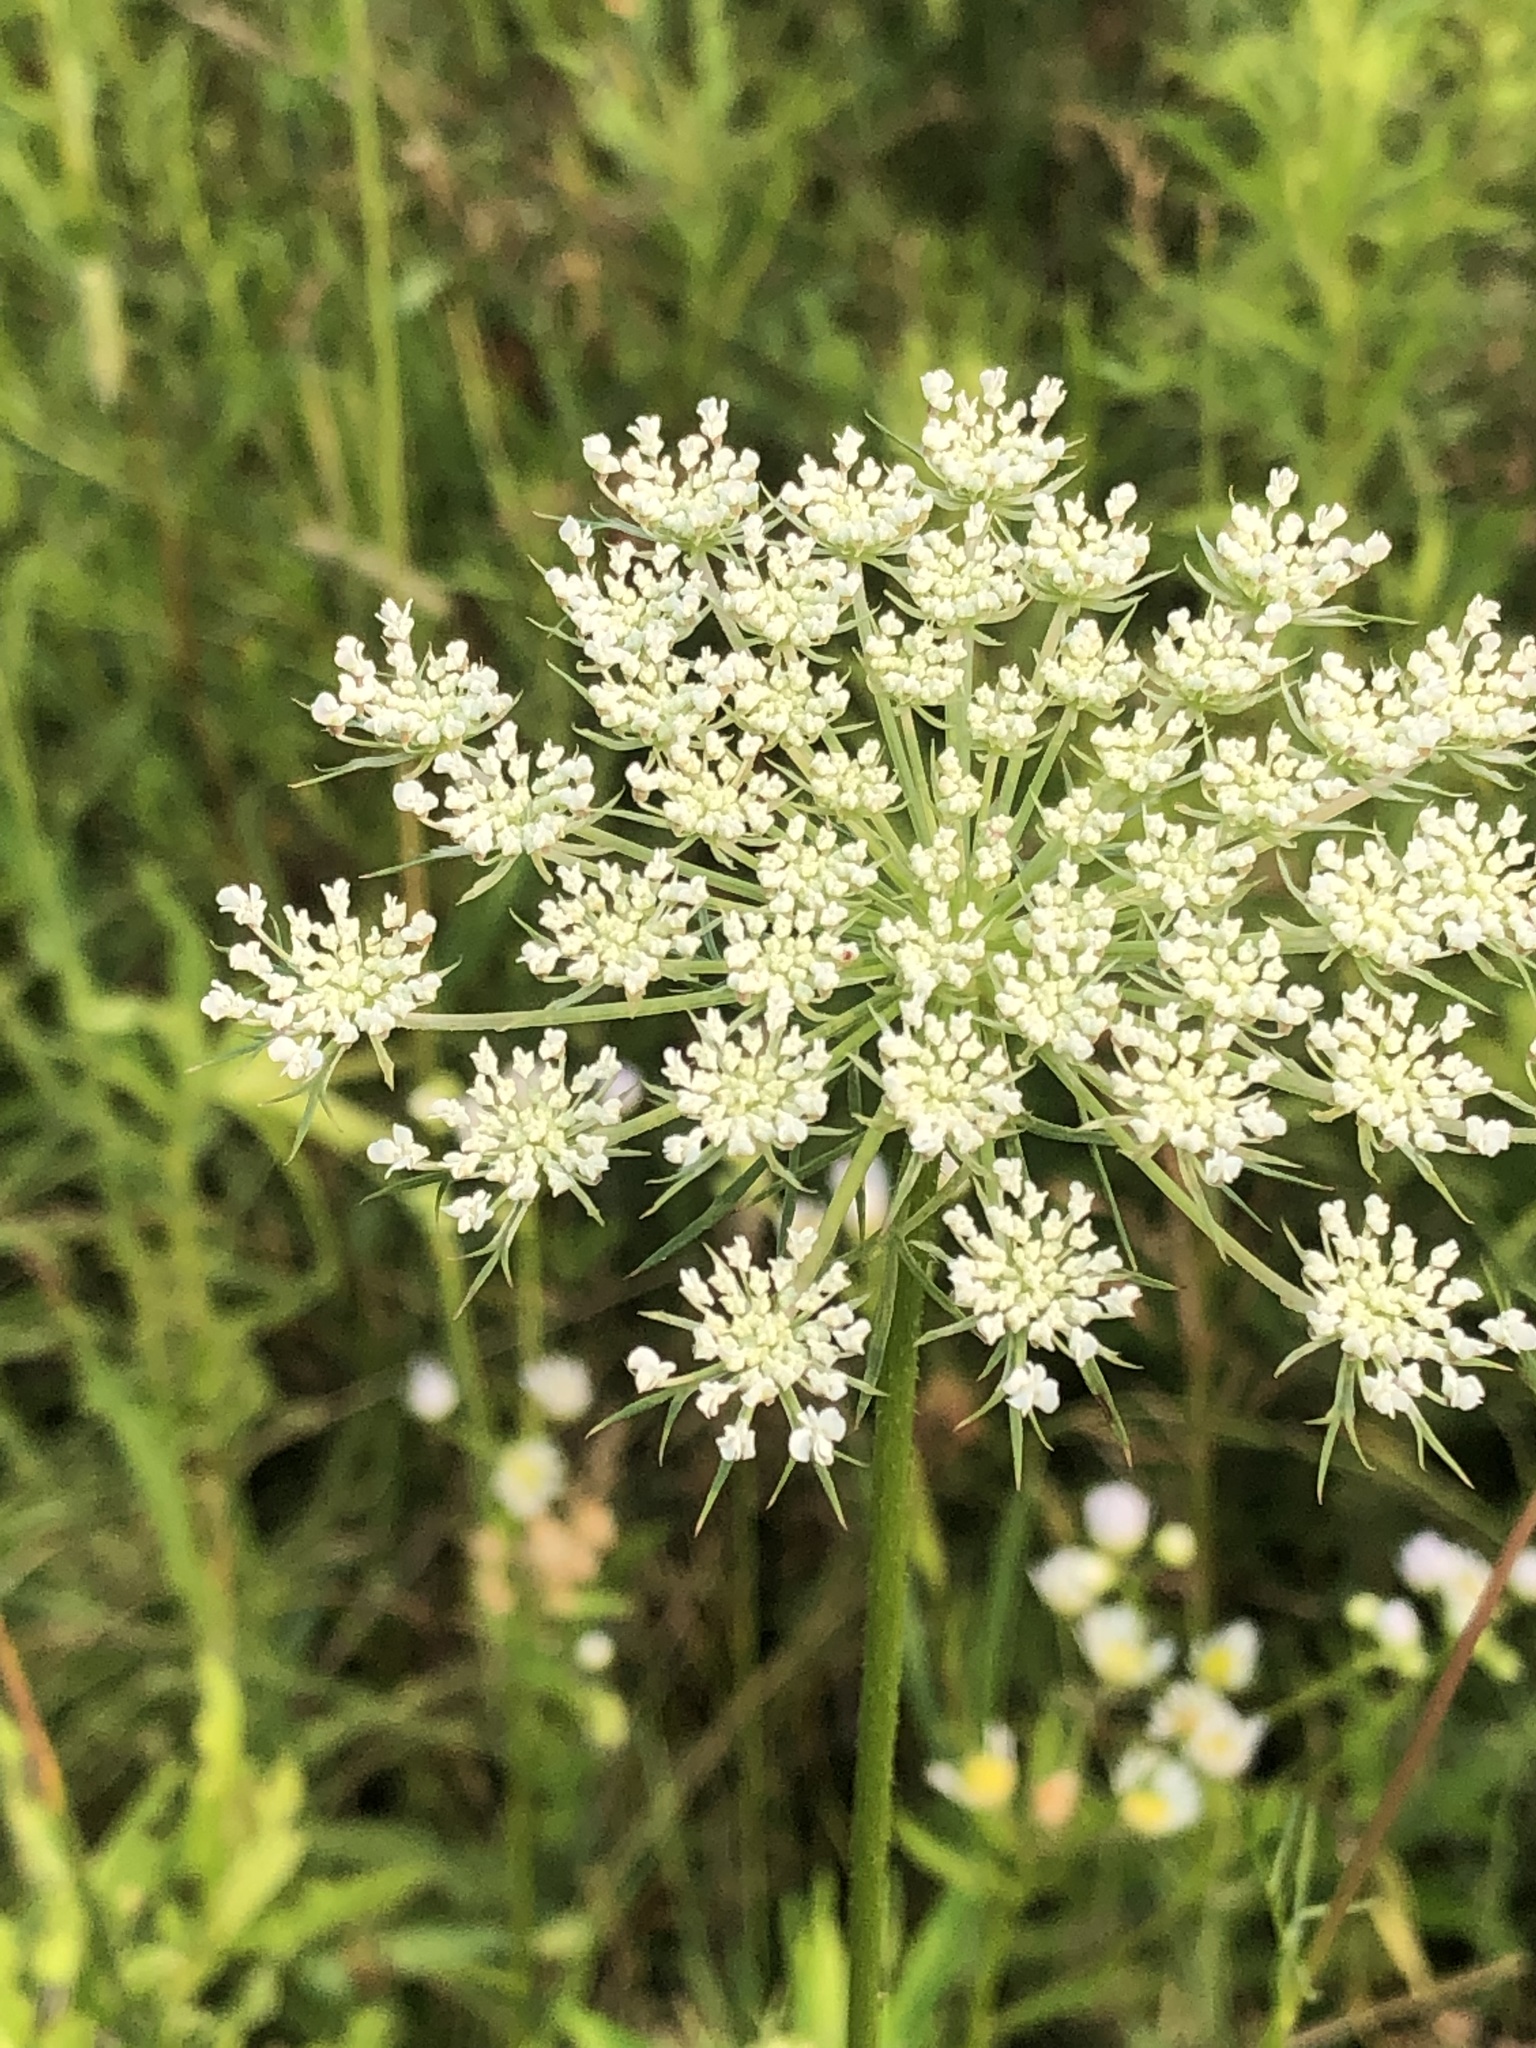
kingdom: Plantae
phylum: Tracheophyta
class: Magnoliopsida
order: Apiales
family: Apiaceae
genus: Daucus
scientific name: Daucus carota
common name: Wild carrot
